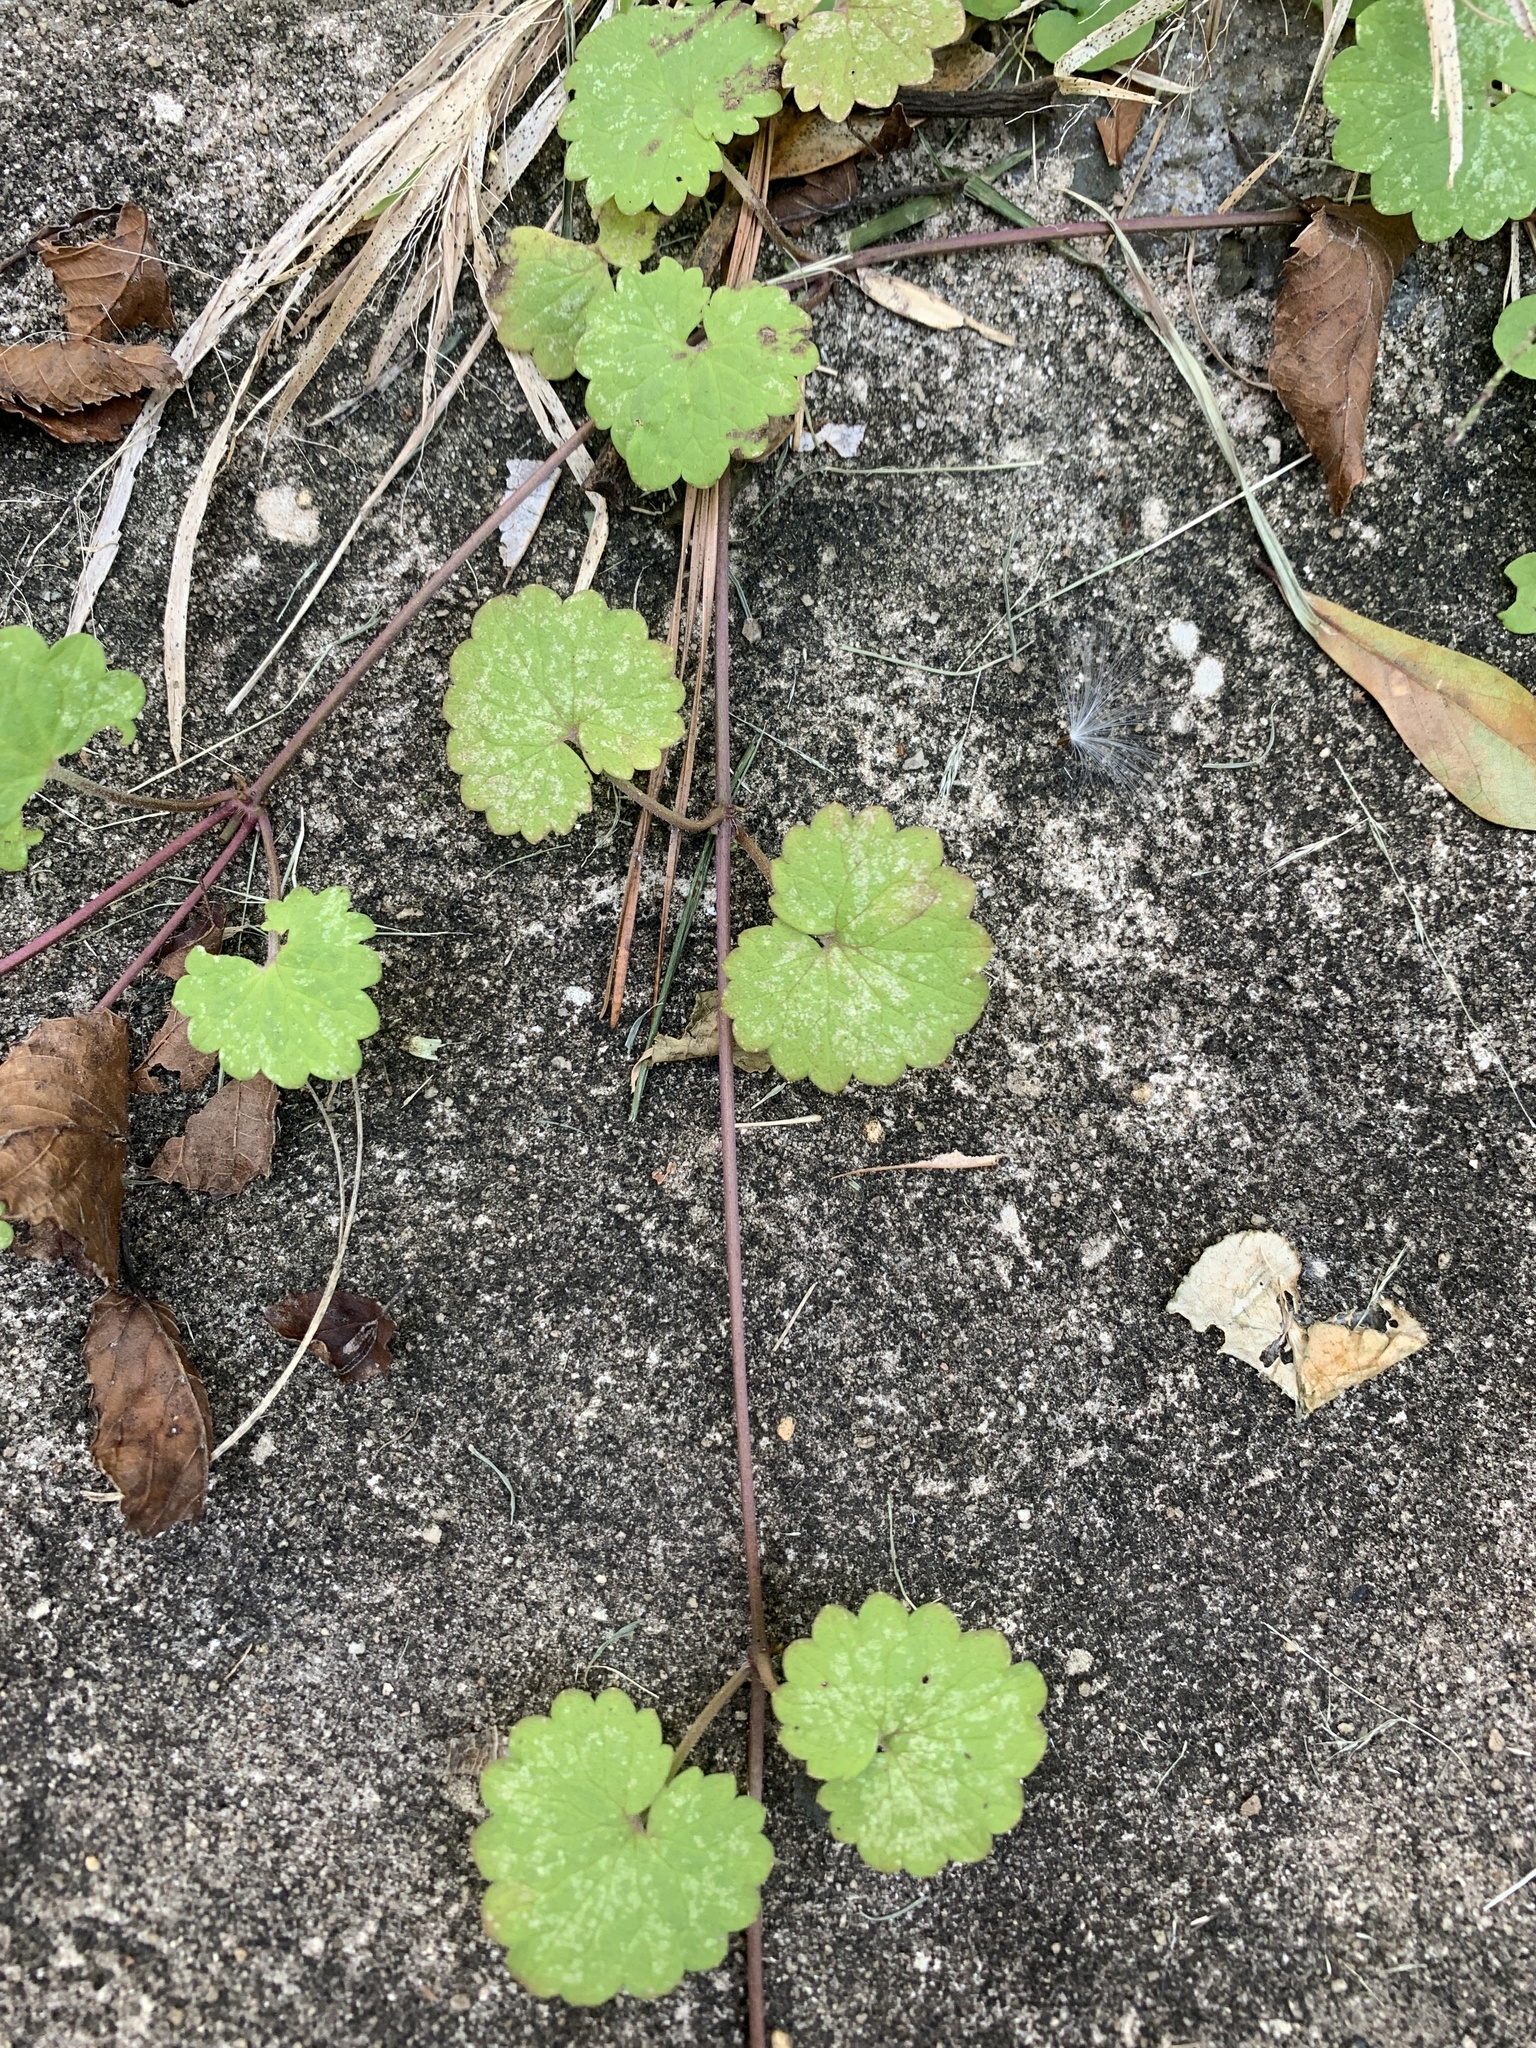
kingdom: Plantae
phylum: Tracheophyta
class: Magnoliopsida
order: Lamiales
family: Lamiaceae
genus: Glechoma
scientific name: Glechoma hederacea
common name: Ground ivy
